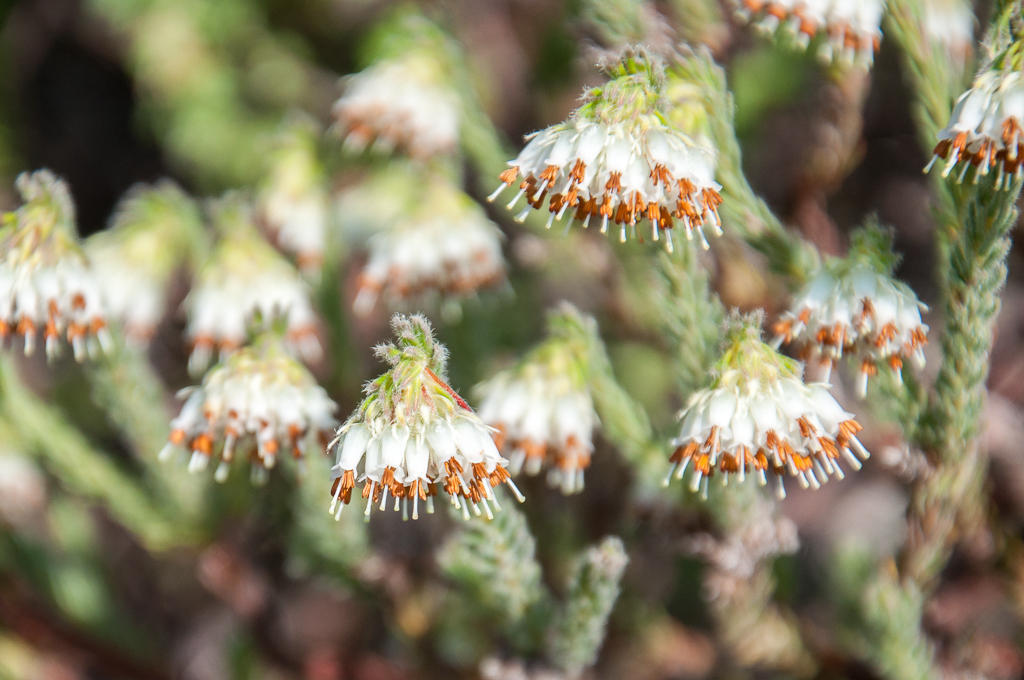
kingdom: Plantae
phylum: Tracheophyta
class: Magnoliopsida
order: Ericales
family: Ericaceae
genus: Erica
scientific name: Erica bruniifolia
